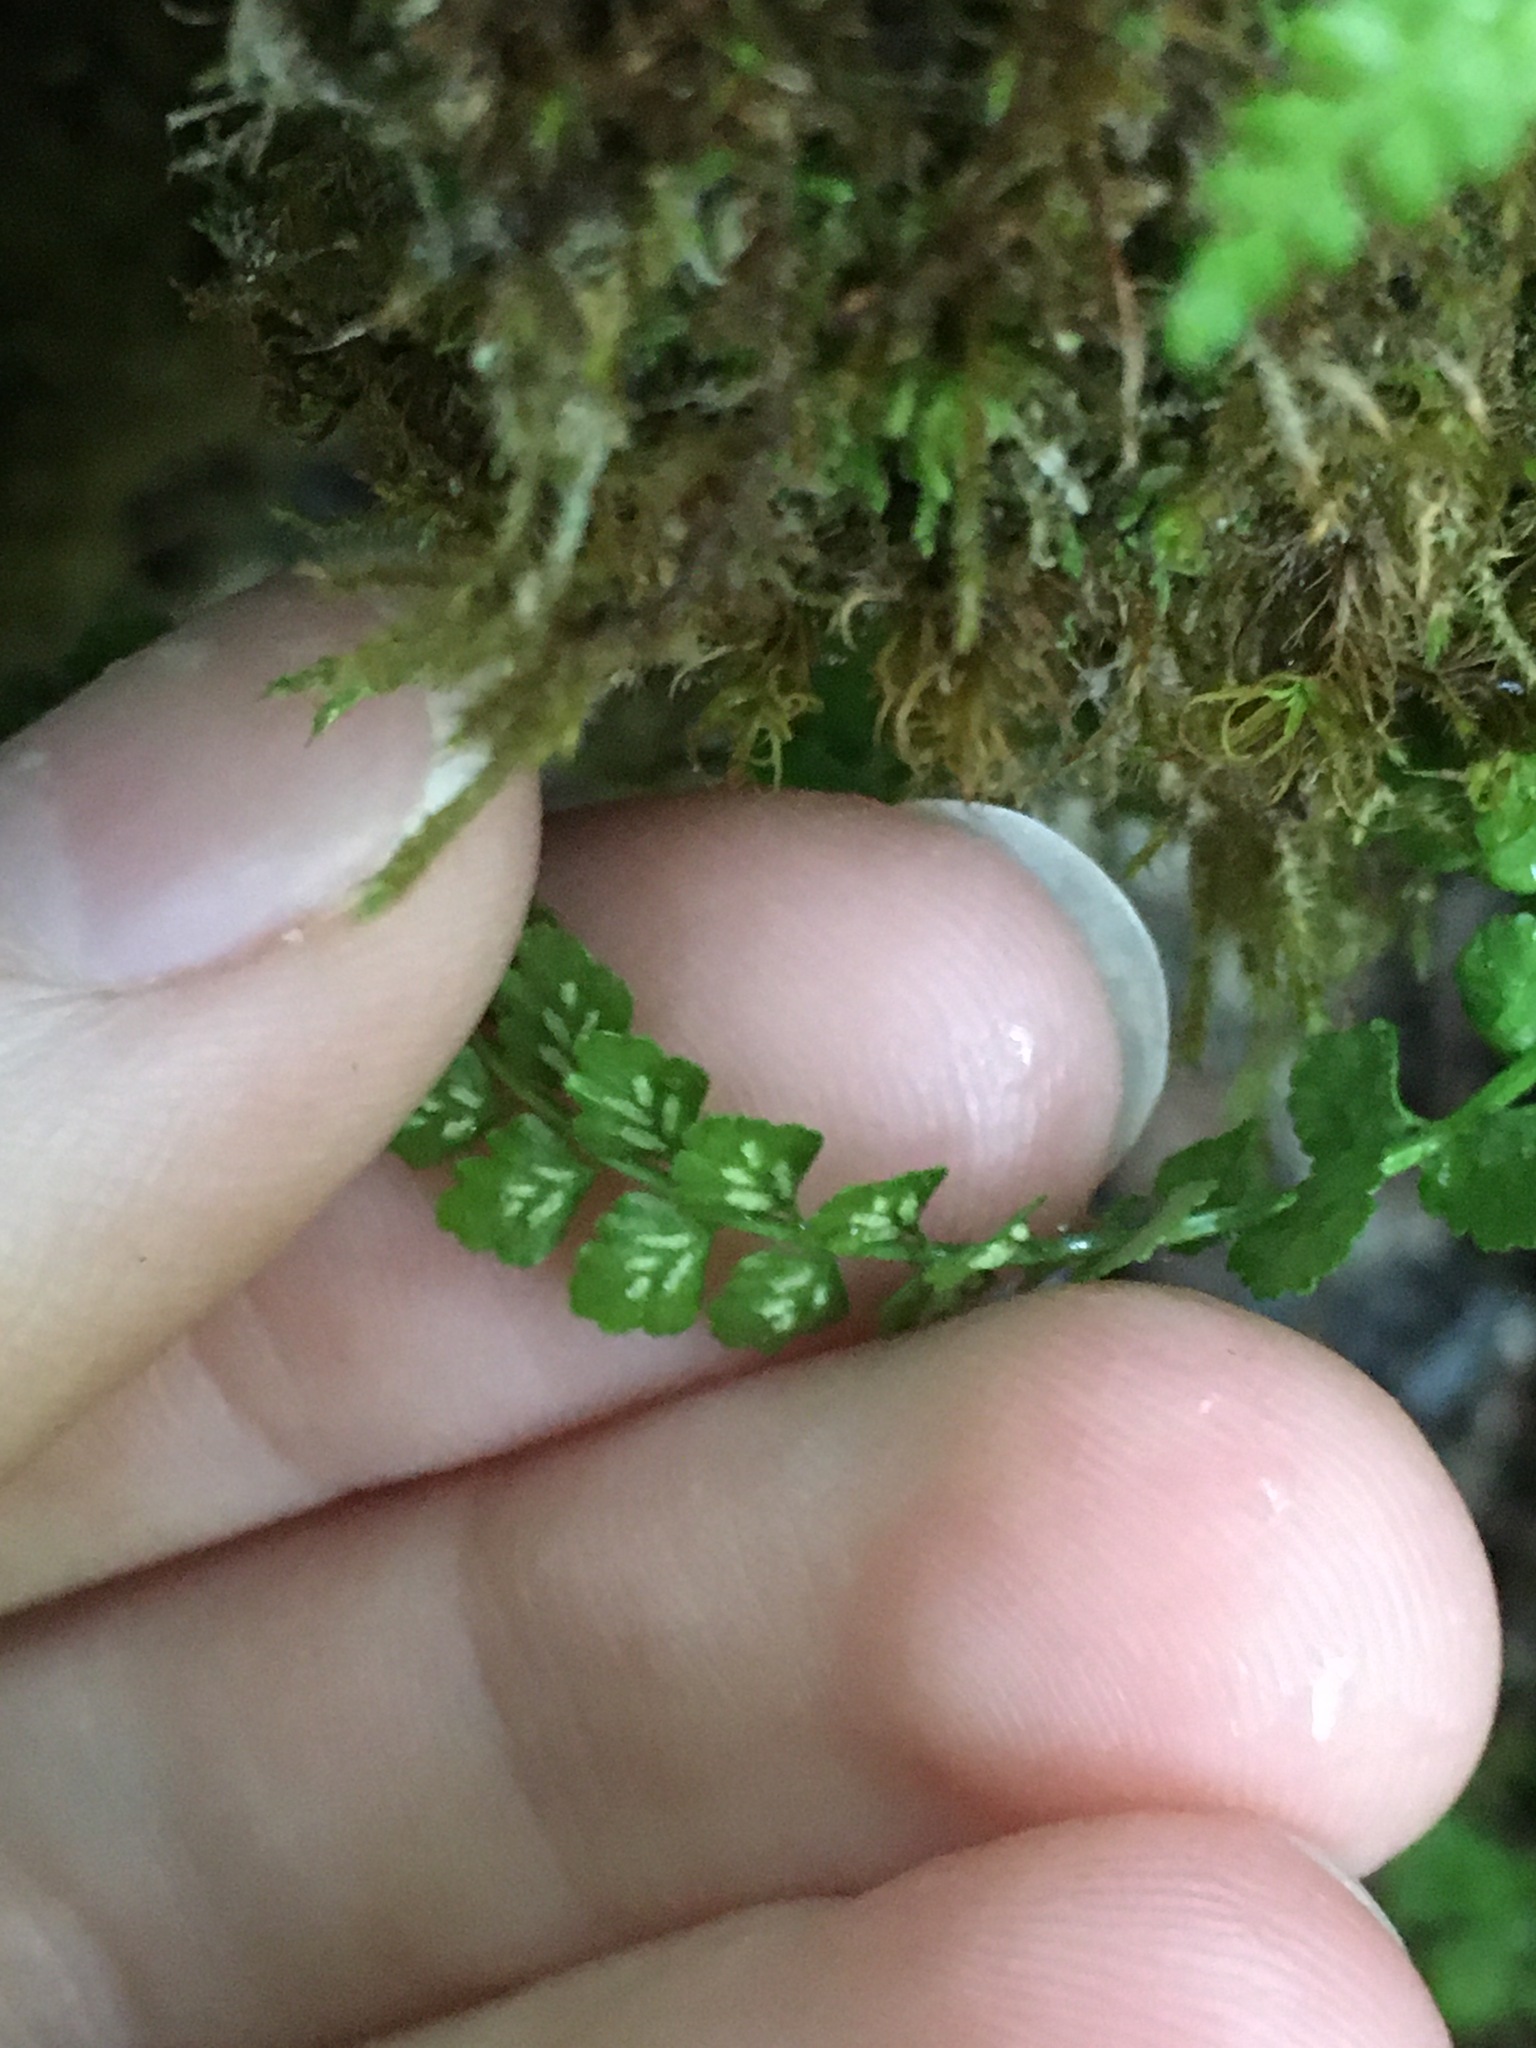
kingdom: Plantae
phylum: Tracheophyta
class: Polypodiopsida
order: Polypodiales
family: Aspleniaceae
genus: Asplenium
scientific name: Asplenium viride
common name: Green spleenwort
